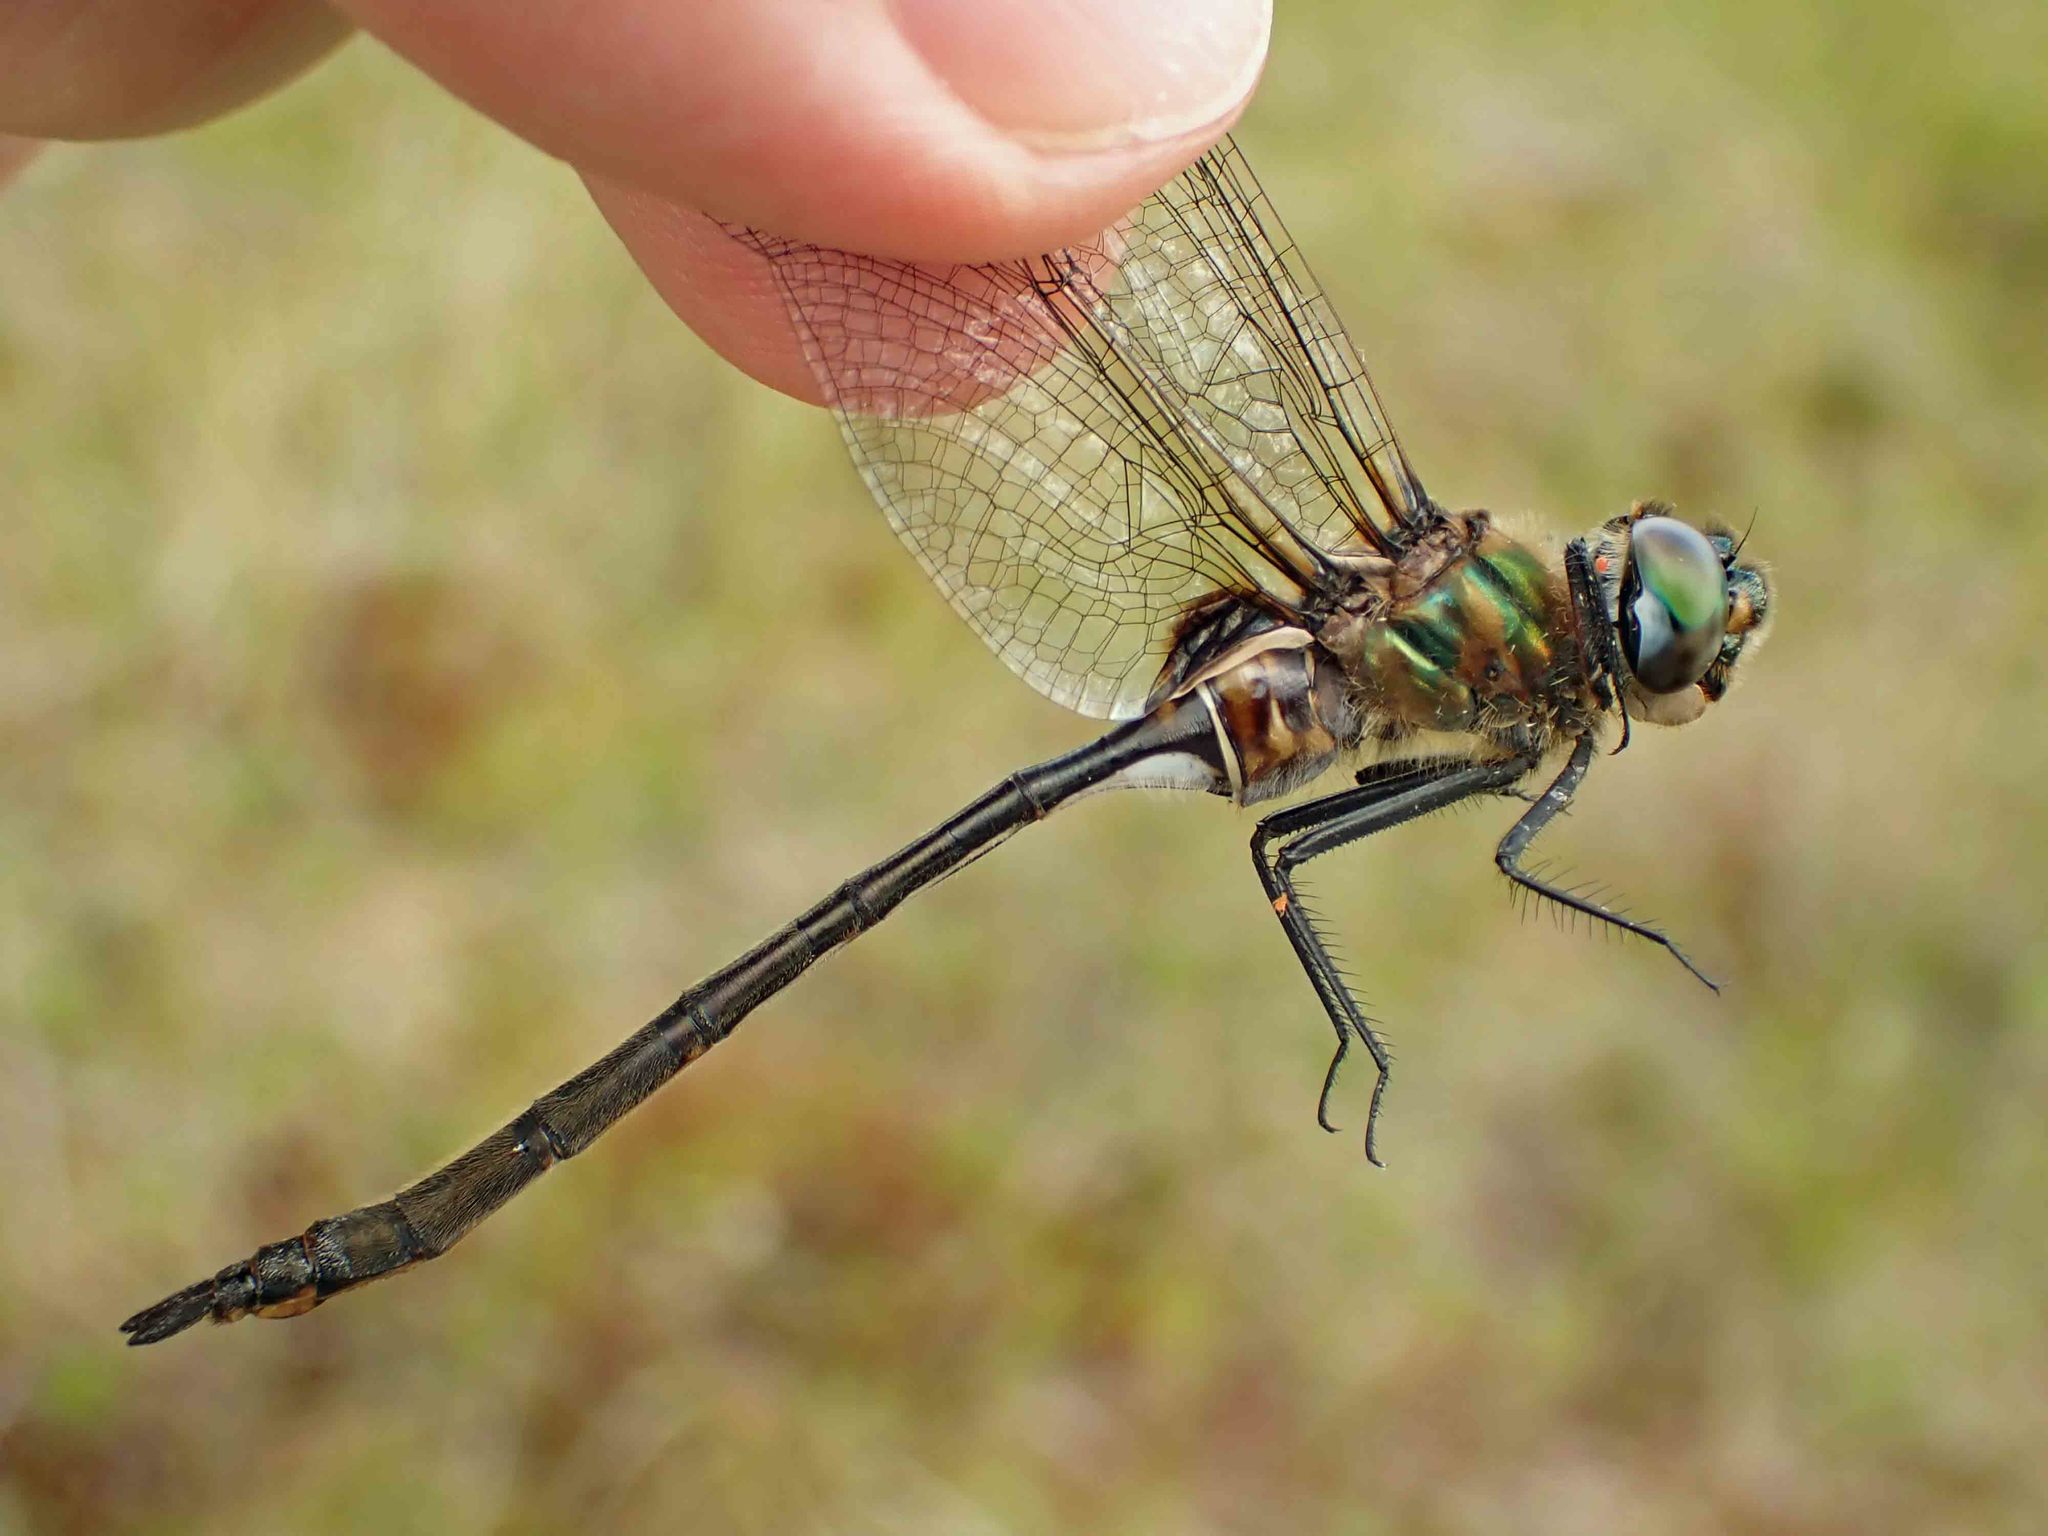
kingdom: Animalia
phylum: Arthropoda
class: Insecta
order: Odonata
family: Corduliidae
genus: Somatochlora
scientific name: Somatochlora franklini
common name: Delicate emerald
